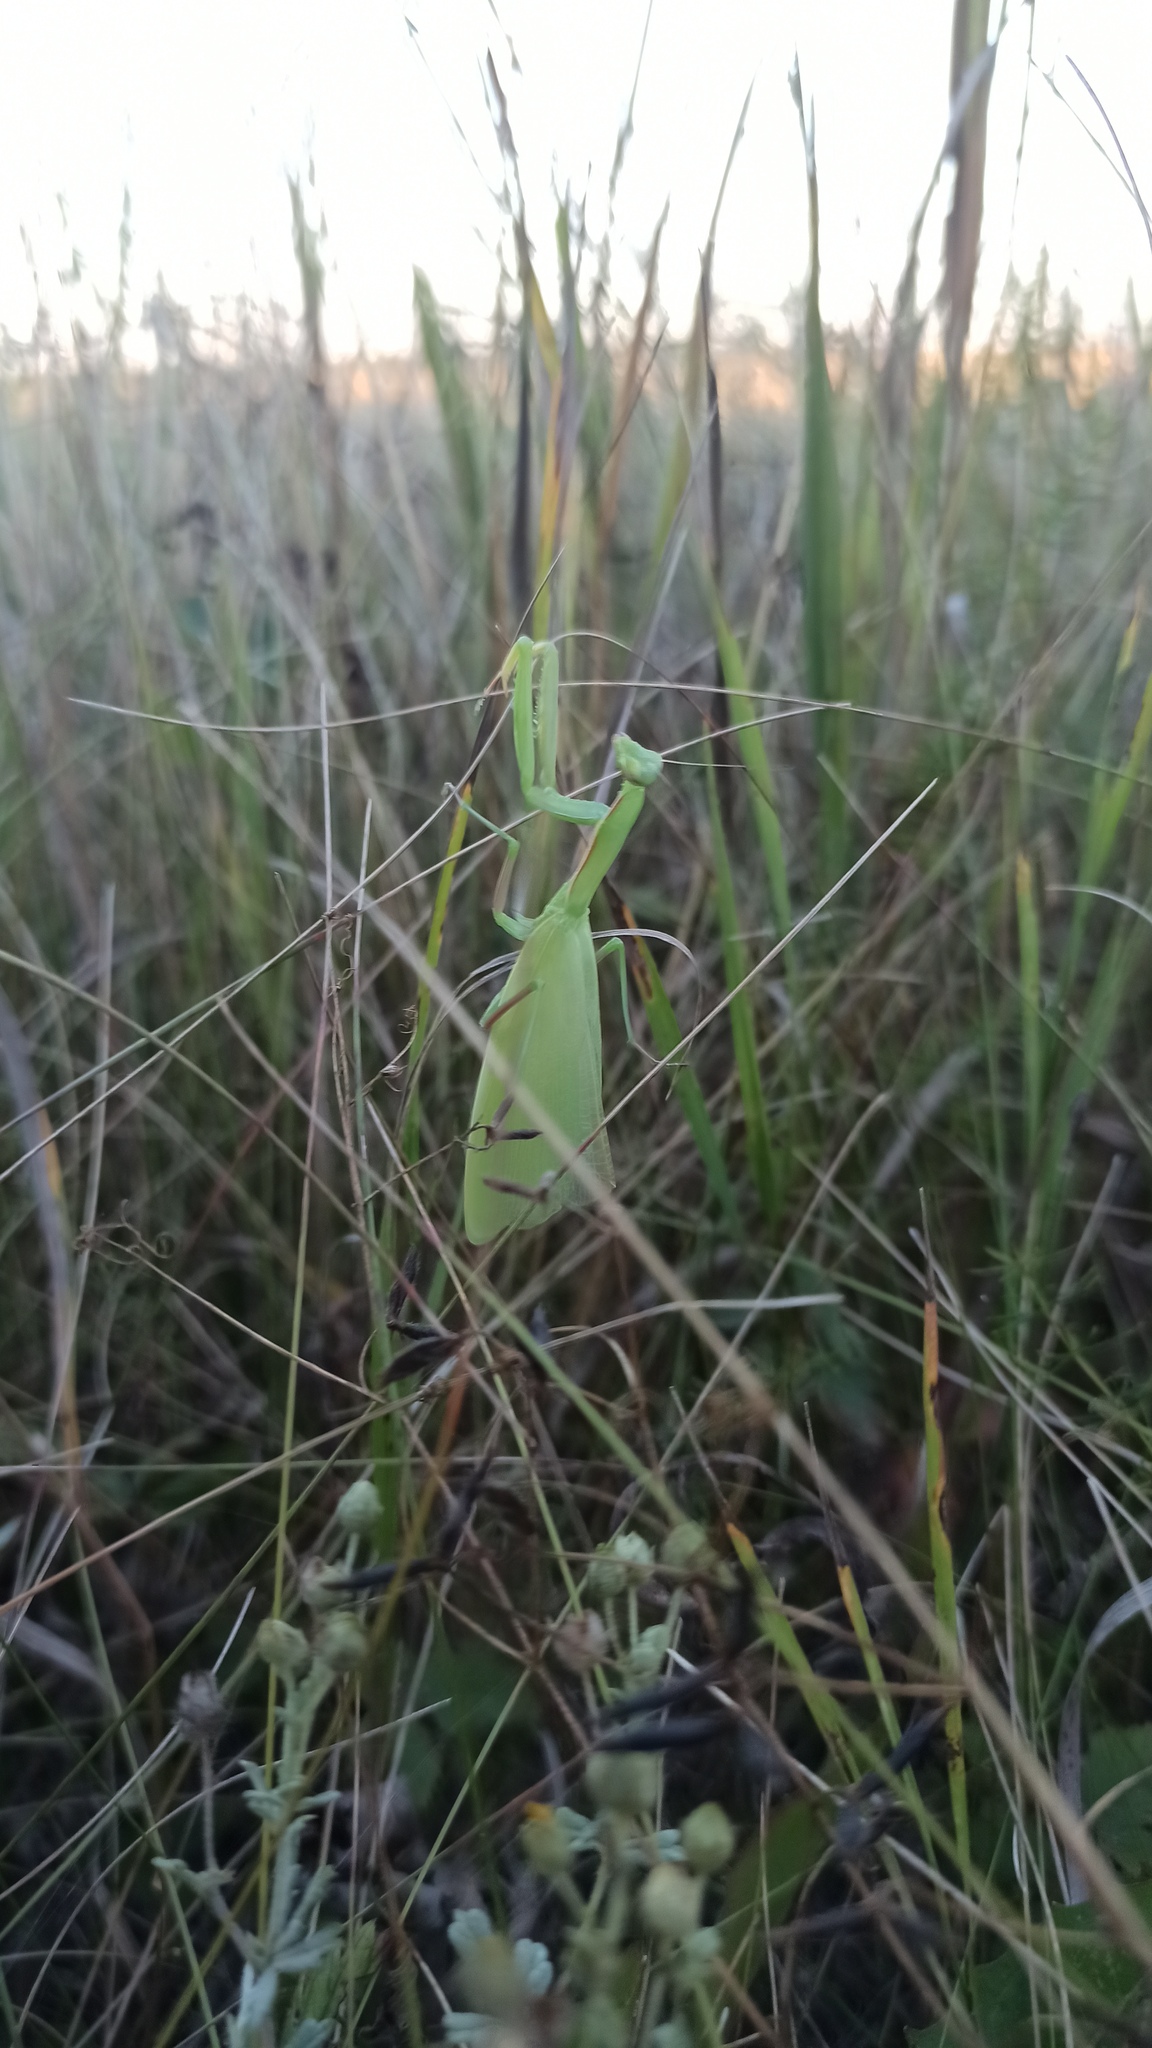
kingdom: Animalia
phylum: Arthropoda
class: Insecta
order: Mantodea
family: Mantidae
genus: Mantis
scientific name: Mantis religiosa
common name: Praying mantis
